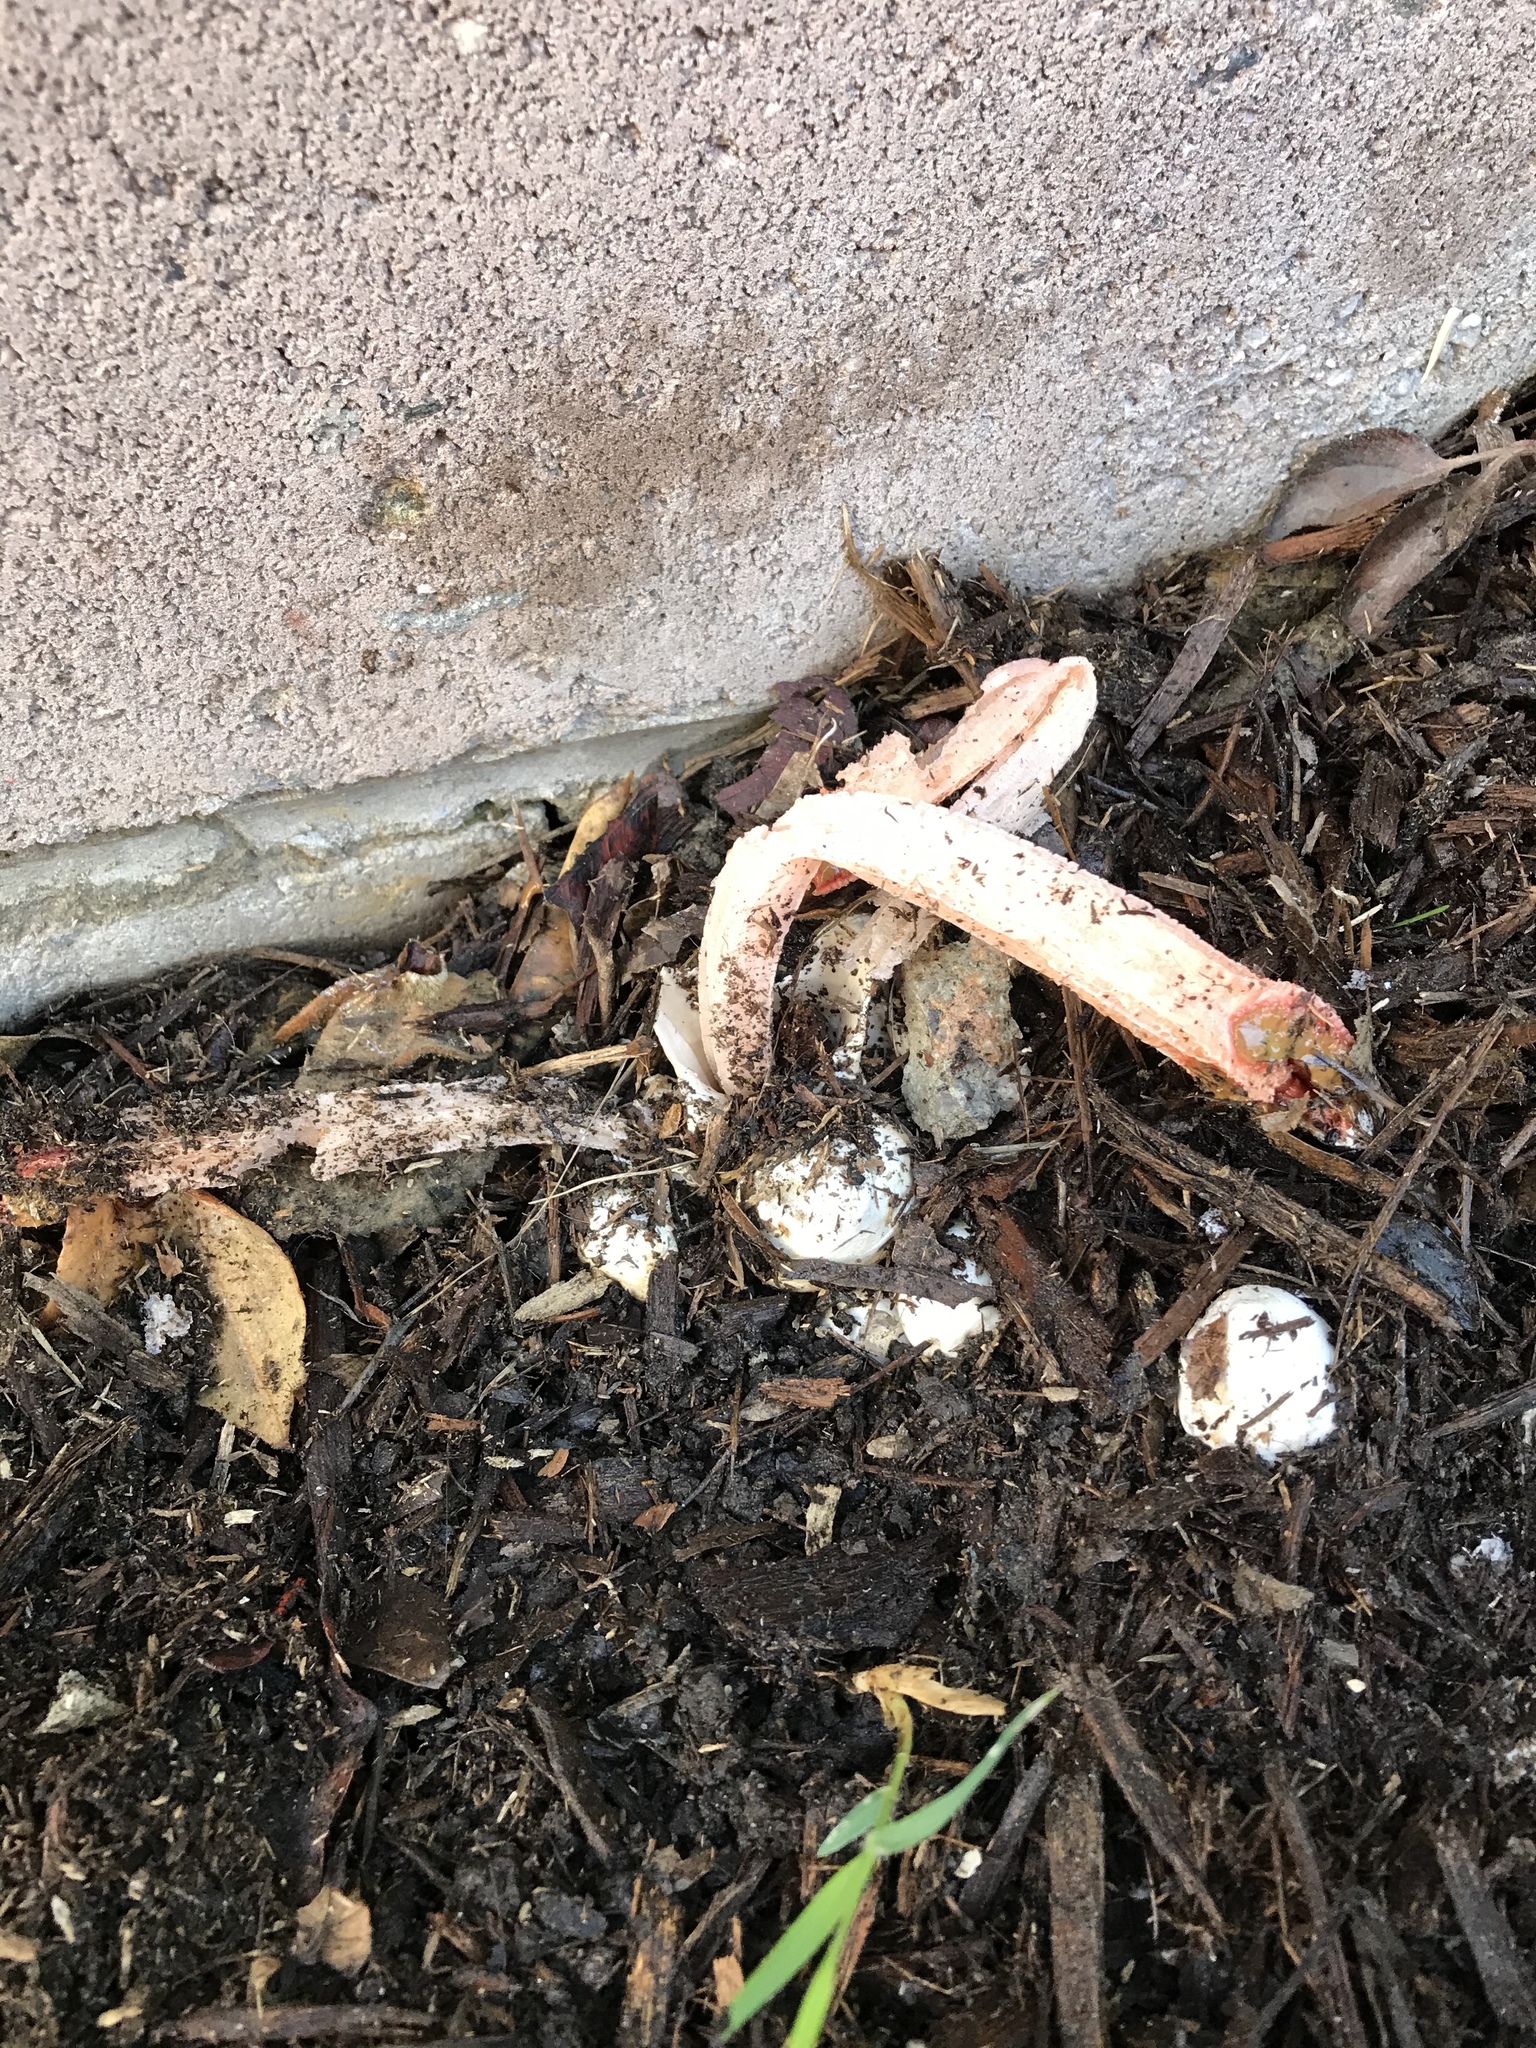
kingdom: Fungi
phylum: Basidiomycota
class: Agaricomycetes
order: Phallales
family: Phallaceae
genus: Lysurus
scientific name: Lysurus mokusin
